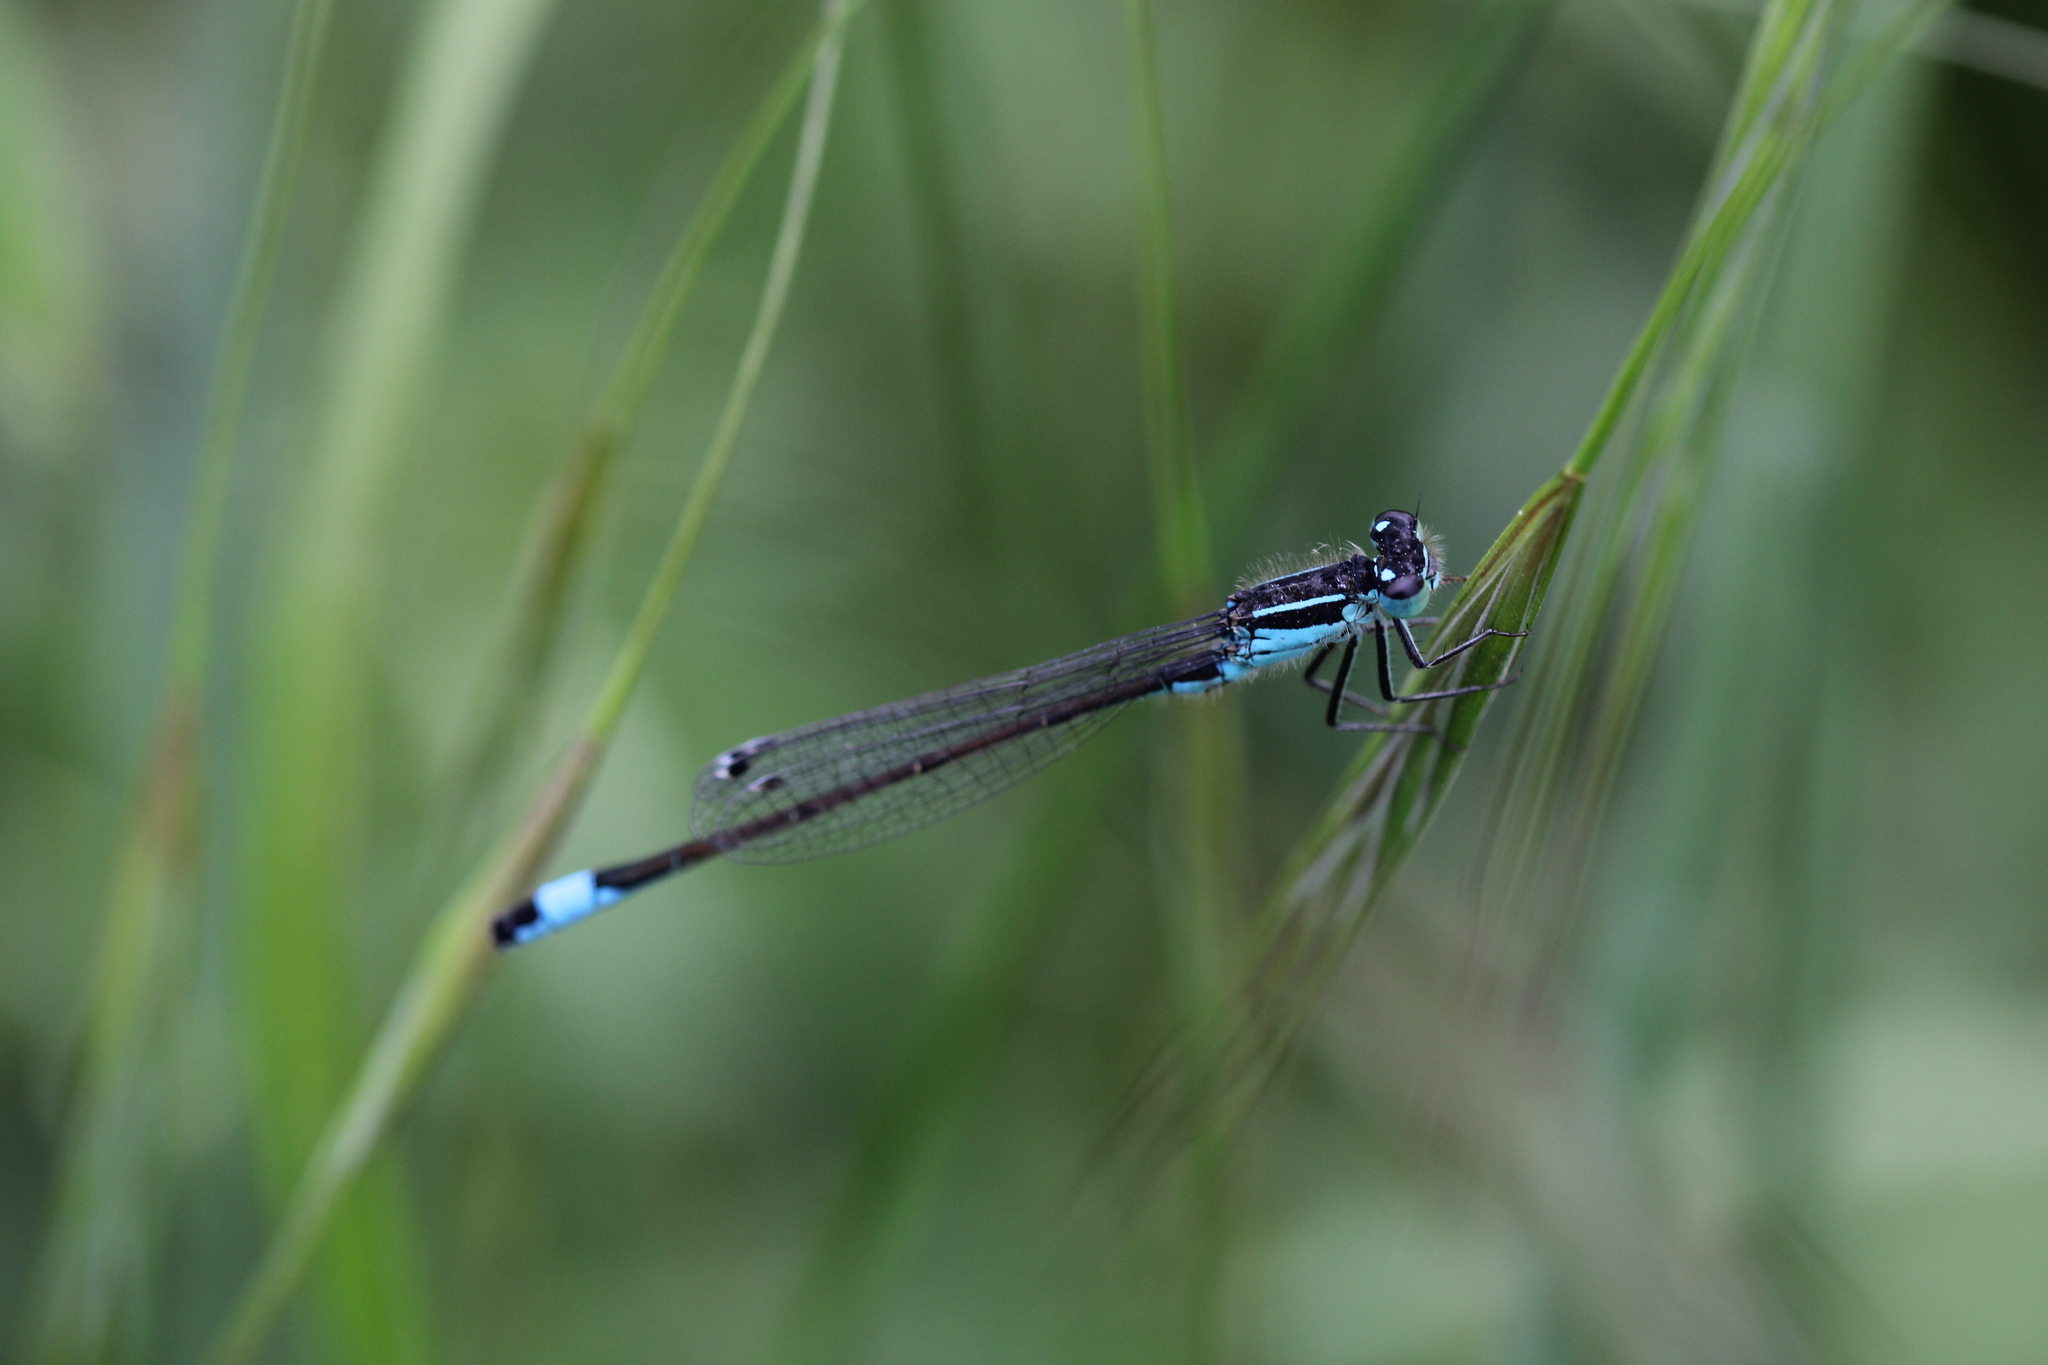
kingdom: Animalia
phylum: Arthropoda
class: Insecta
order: Odonata
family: Coenagrionidae
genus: Ischnura
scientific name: Ischnura elegans
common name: Blue-tailed damselfly
